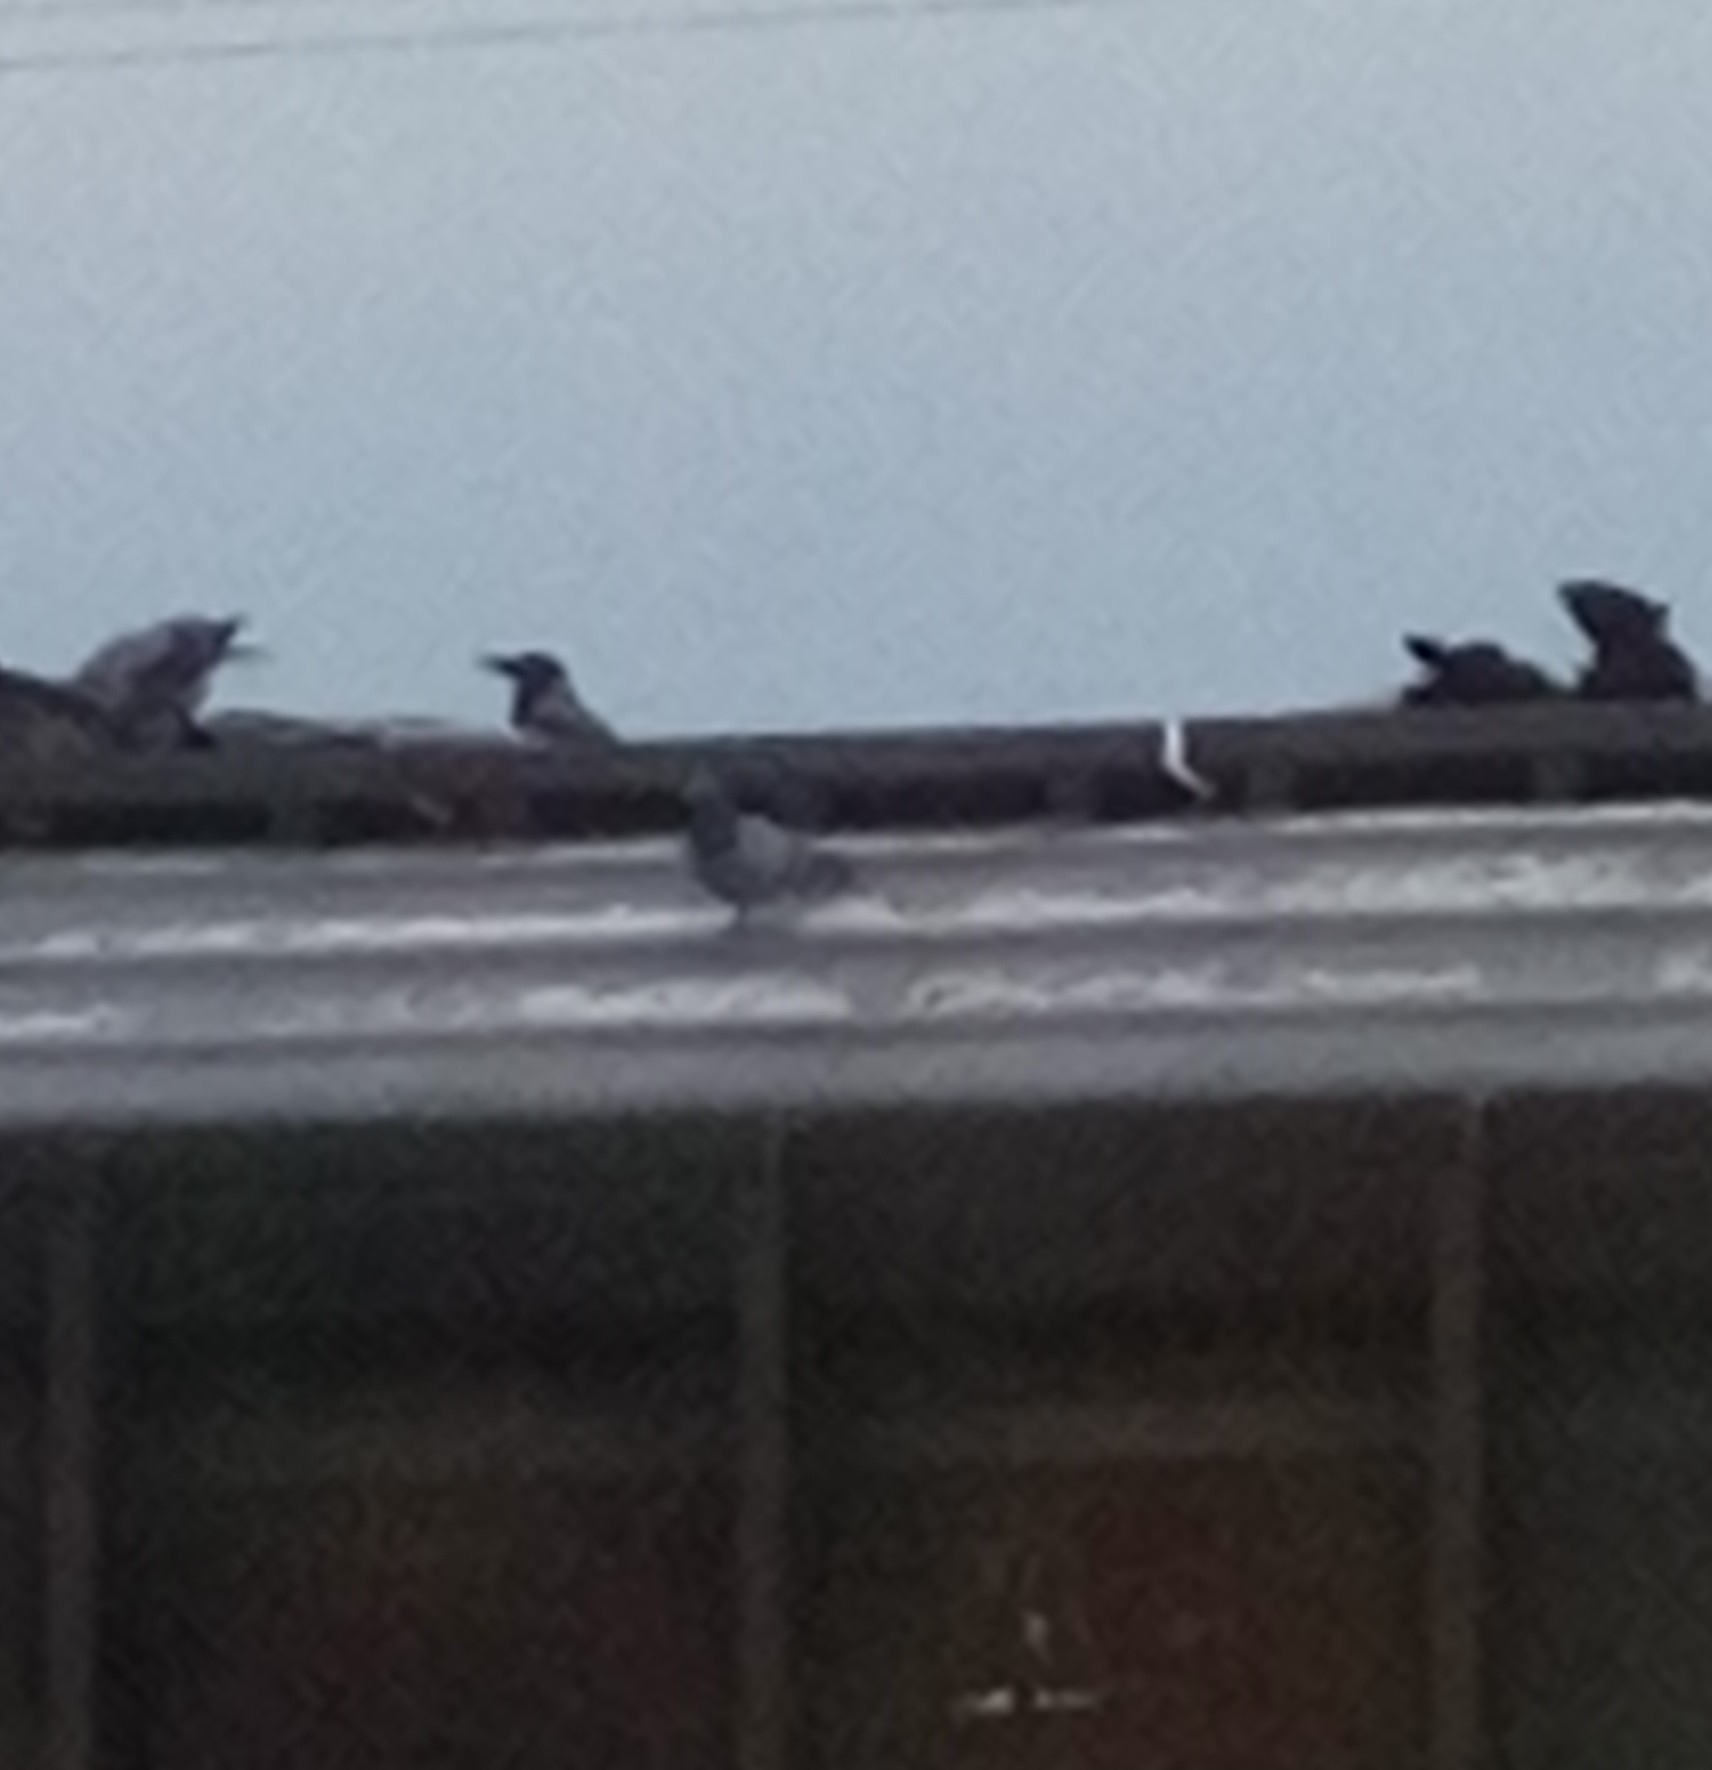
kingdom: Animalia
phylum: Chordata
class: Aves
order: Columbiformes
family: Columbidae
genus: Columba
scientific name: Columba livia
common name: Rock pigeon
